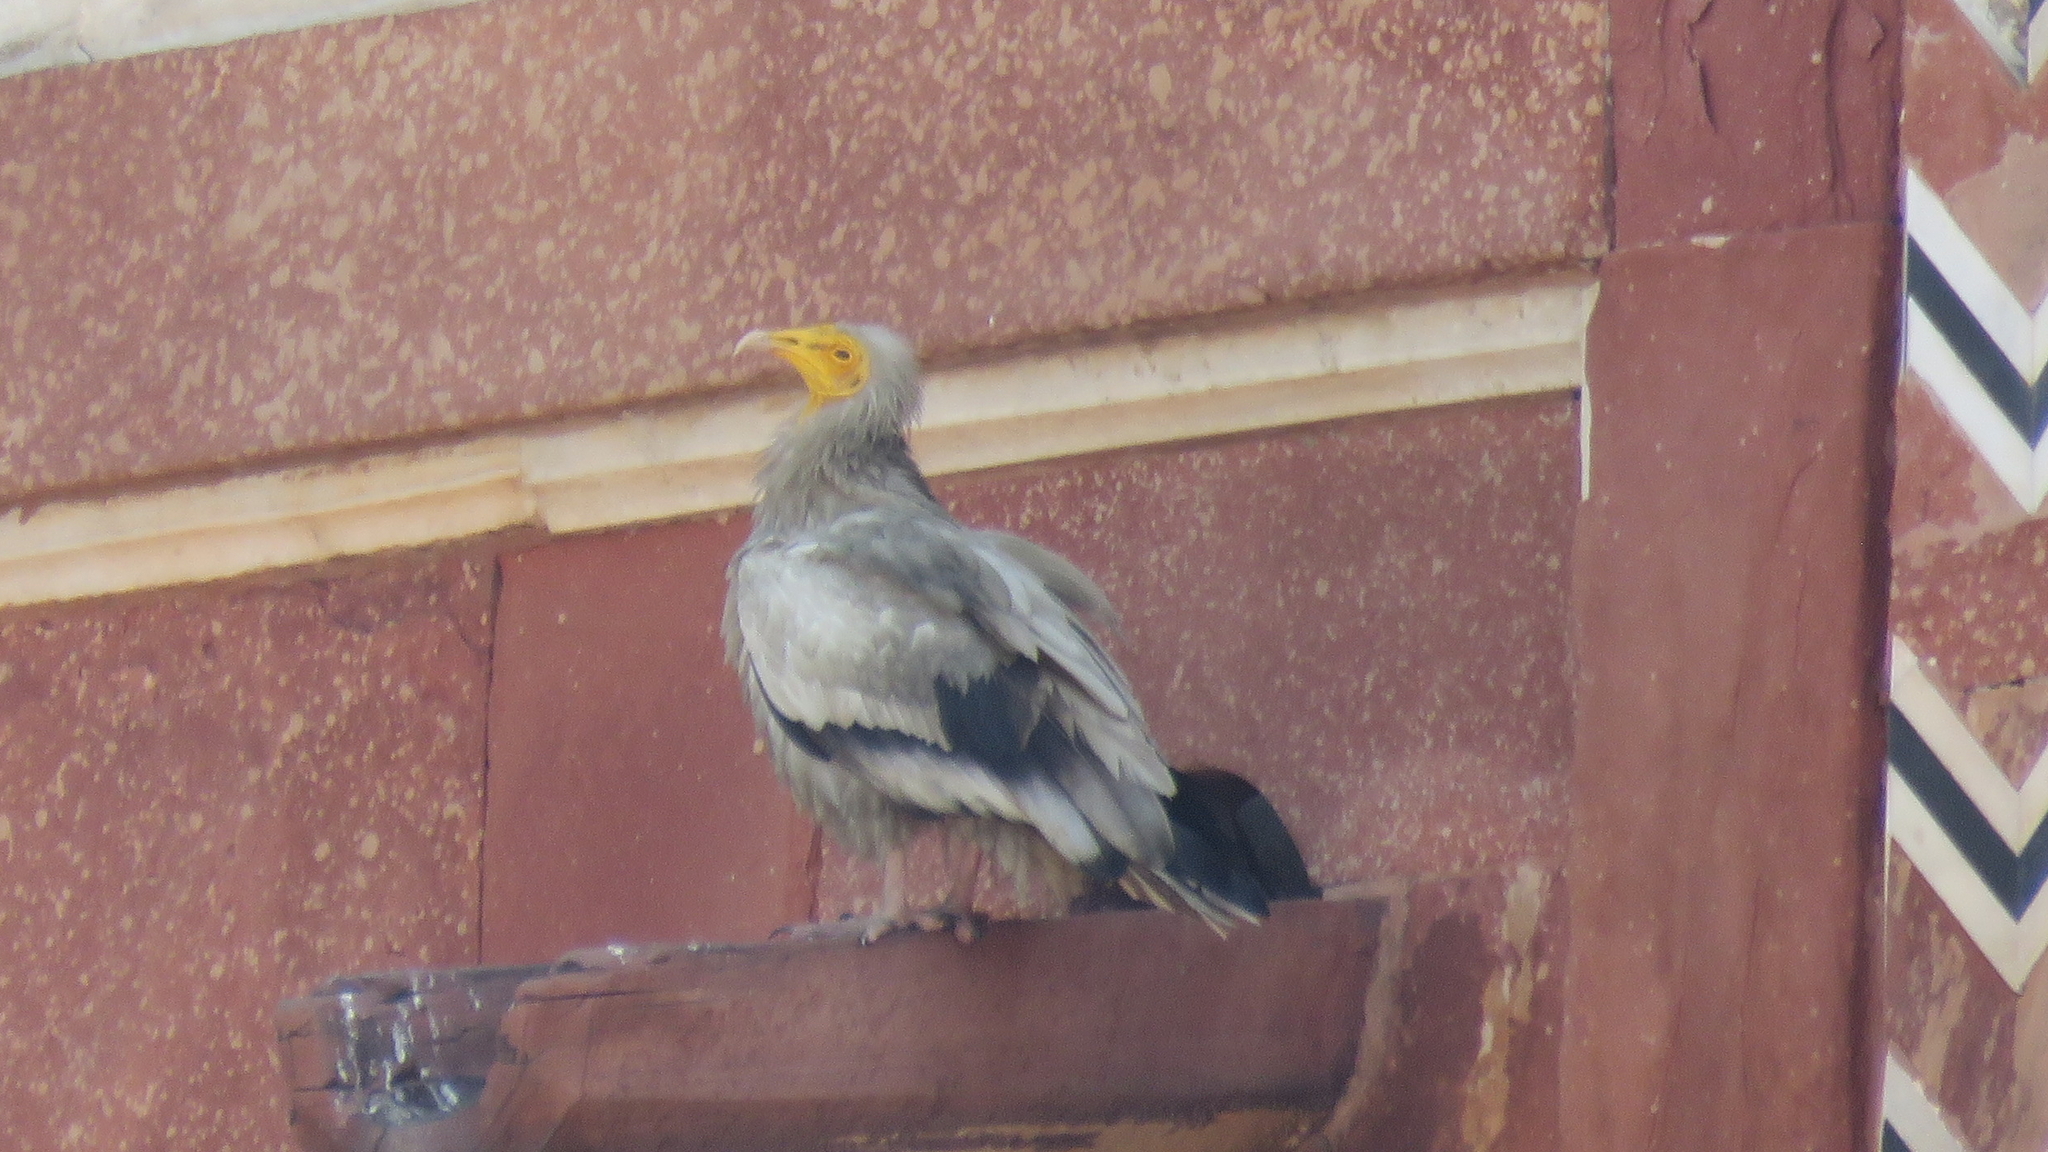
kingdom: Animalia
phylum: Chordata
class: Aves
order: Accipitriformes
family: Accipitridae
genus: Neophron
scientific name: Neophron percnopterus
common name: Egyptian vulture
